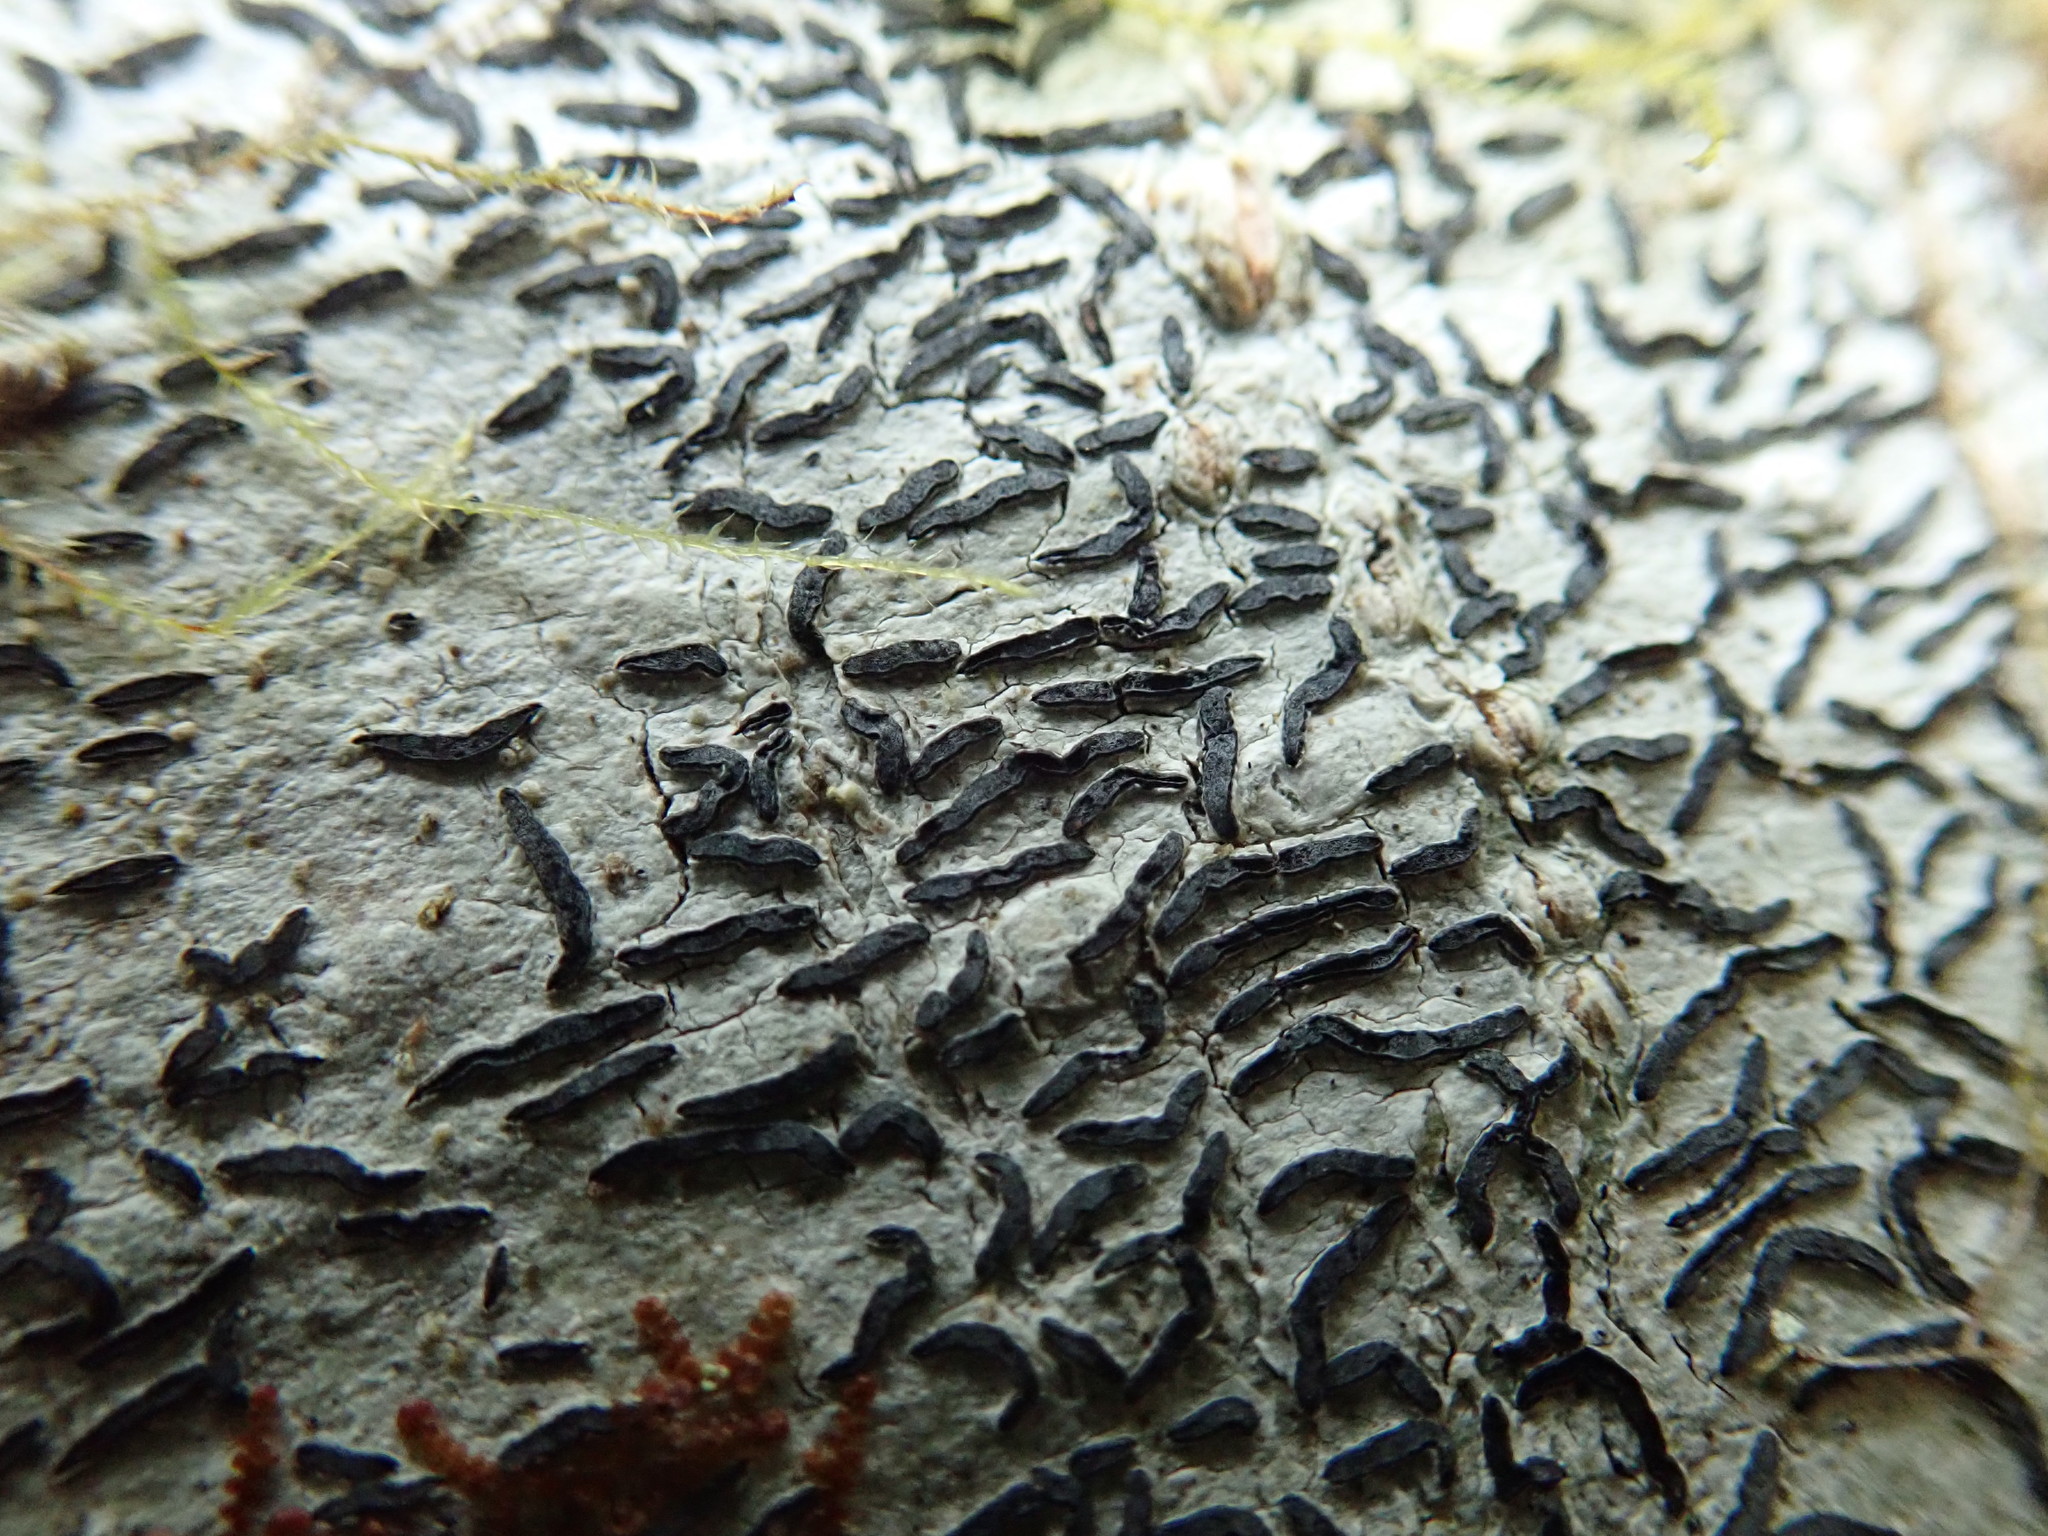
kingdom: Fungi
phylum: Ascomycota
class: Lecanoromycetes
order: Ostropales
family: Graphidaceae
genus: Graphis
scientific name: Graphis scripta
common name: Script lichen
